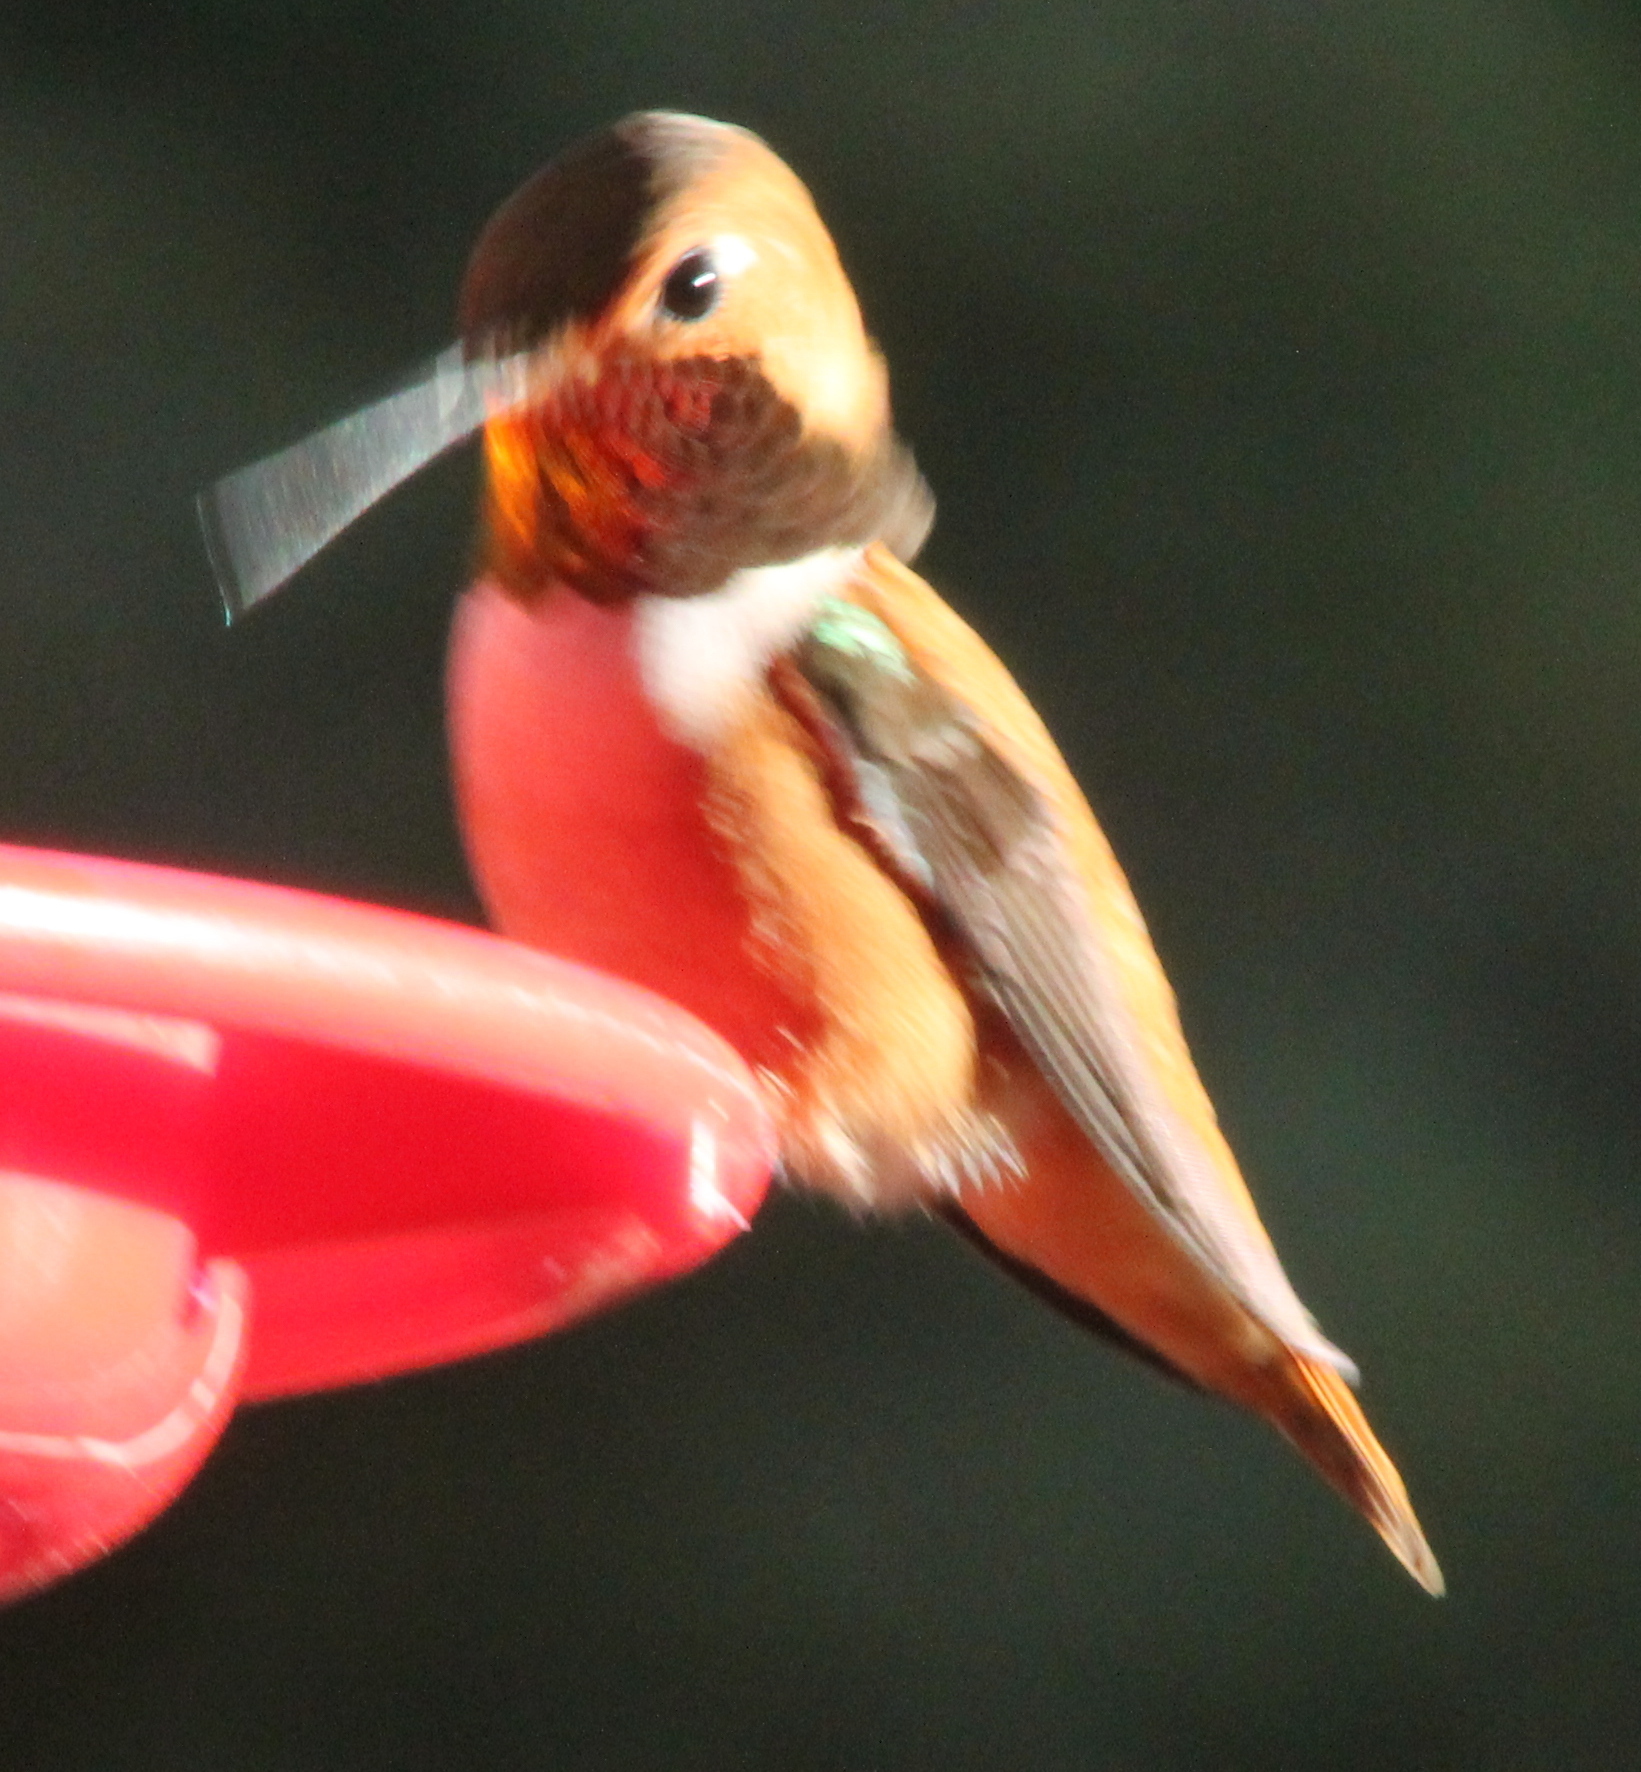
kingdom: Animalia
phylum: Chordata
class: Aves
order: Apodiformes
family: Trochilidae
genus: Selasphorus
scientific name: Selasphorus rufus
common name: Rufous hummingbird
